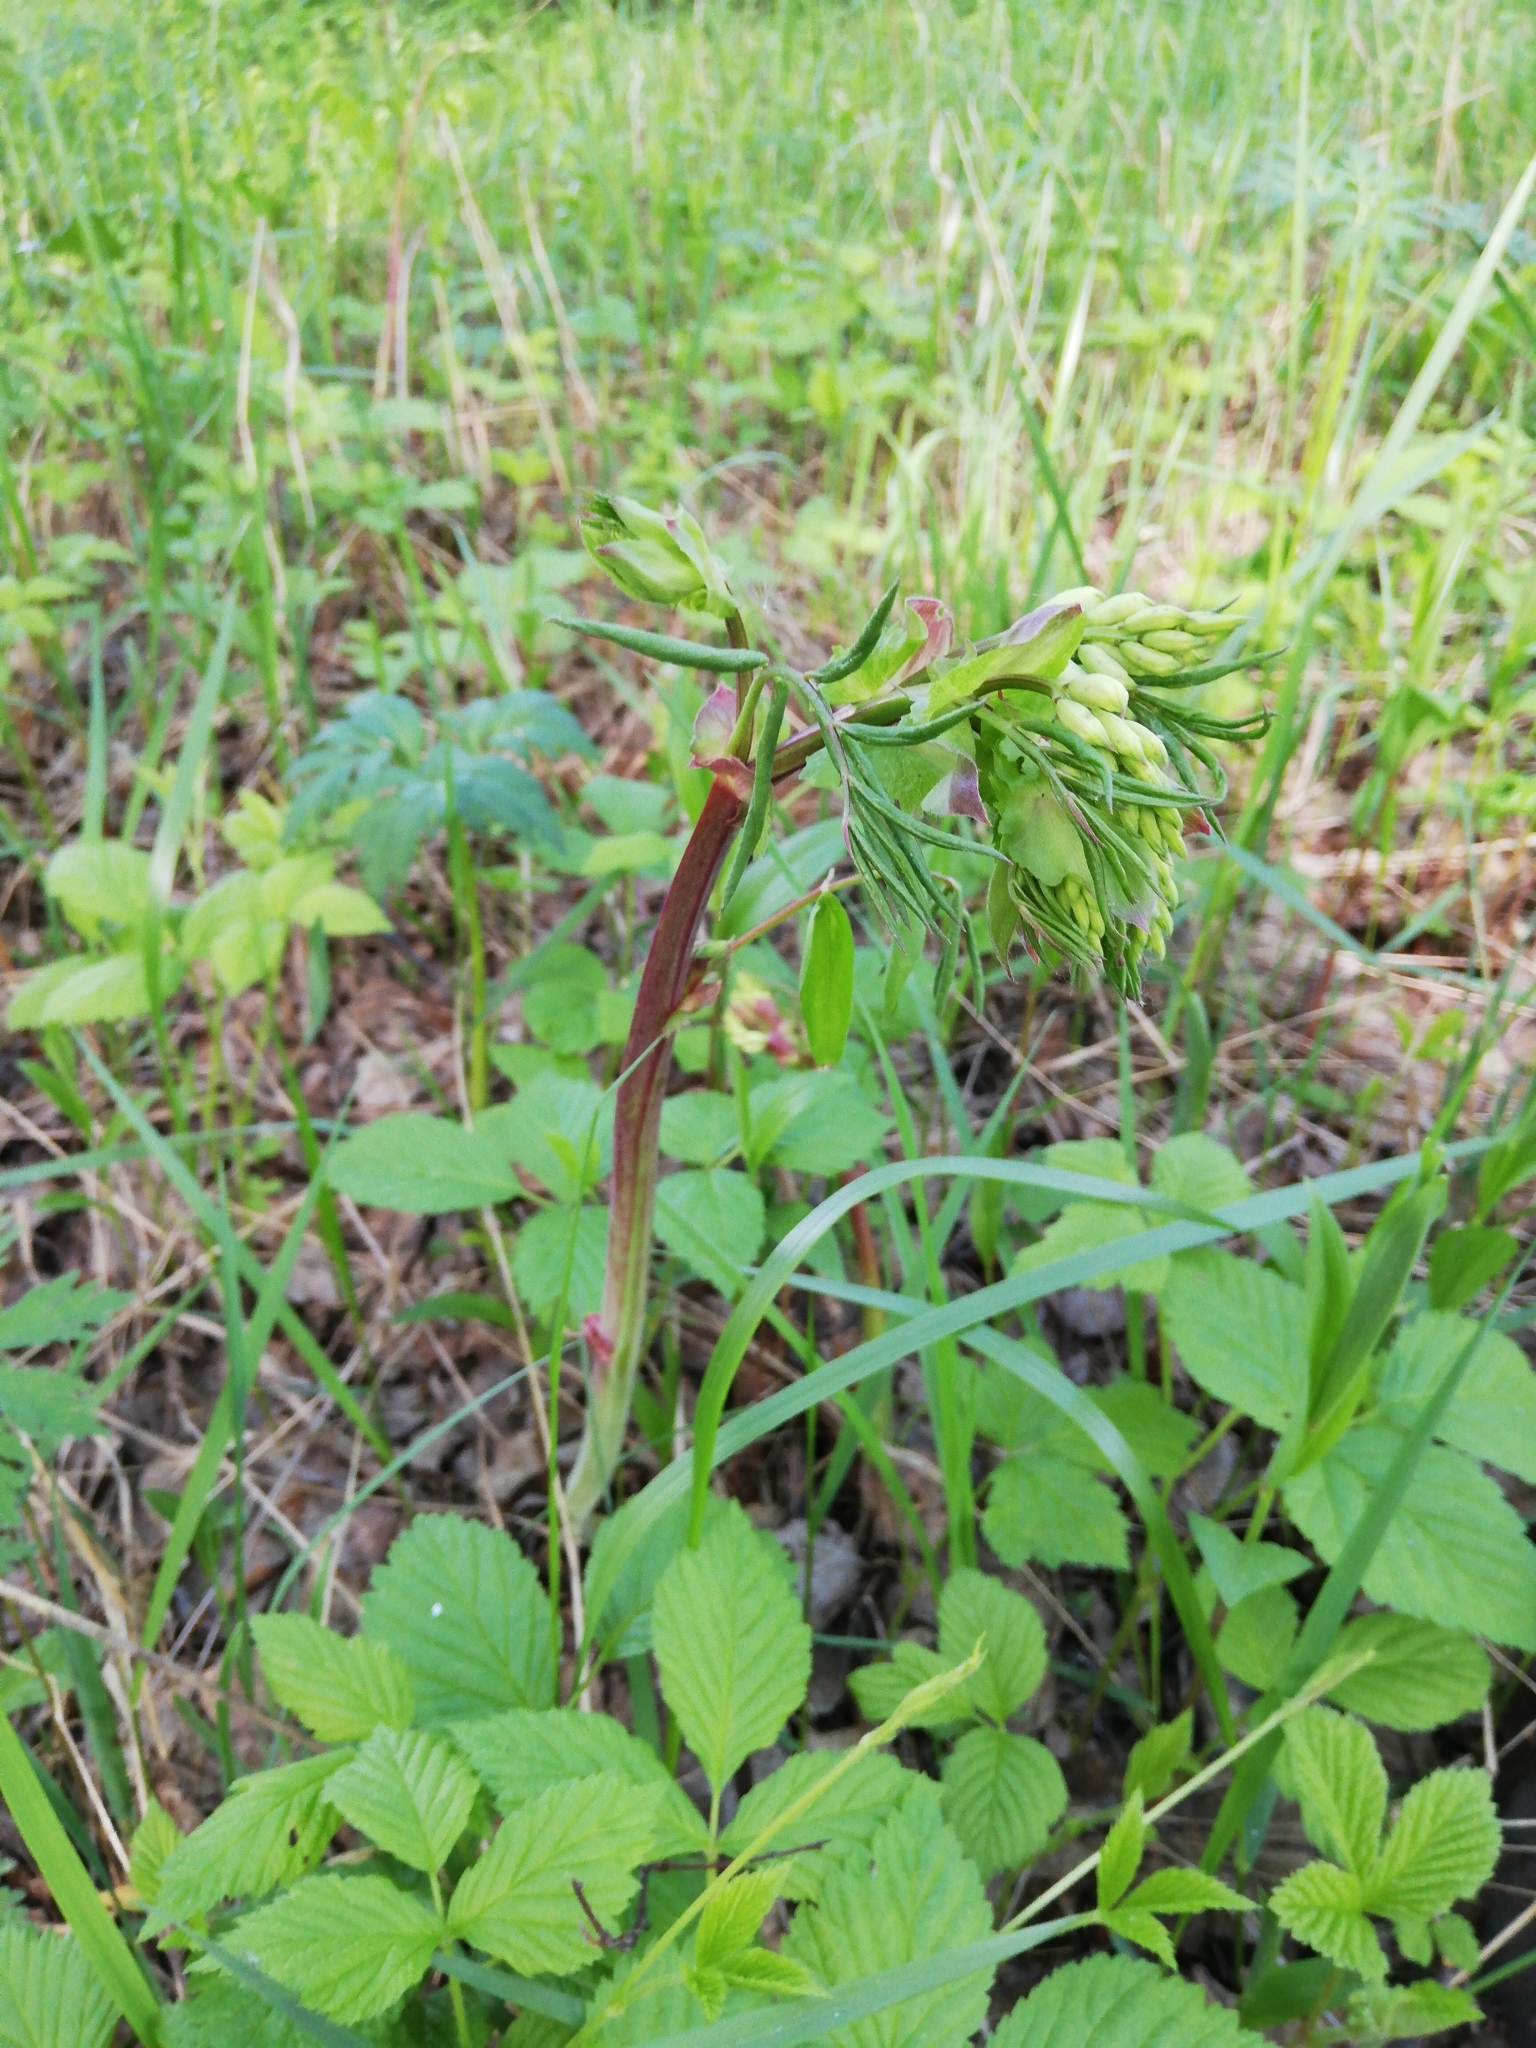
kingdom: Plantae
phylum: Tracheophyta
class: Magnoliopsida
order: Fabales
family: Fabaceae
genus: Lathyrus
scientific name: Lathyrus gmelinii
